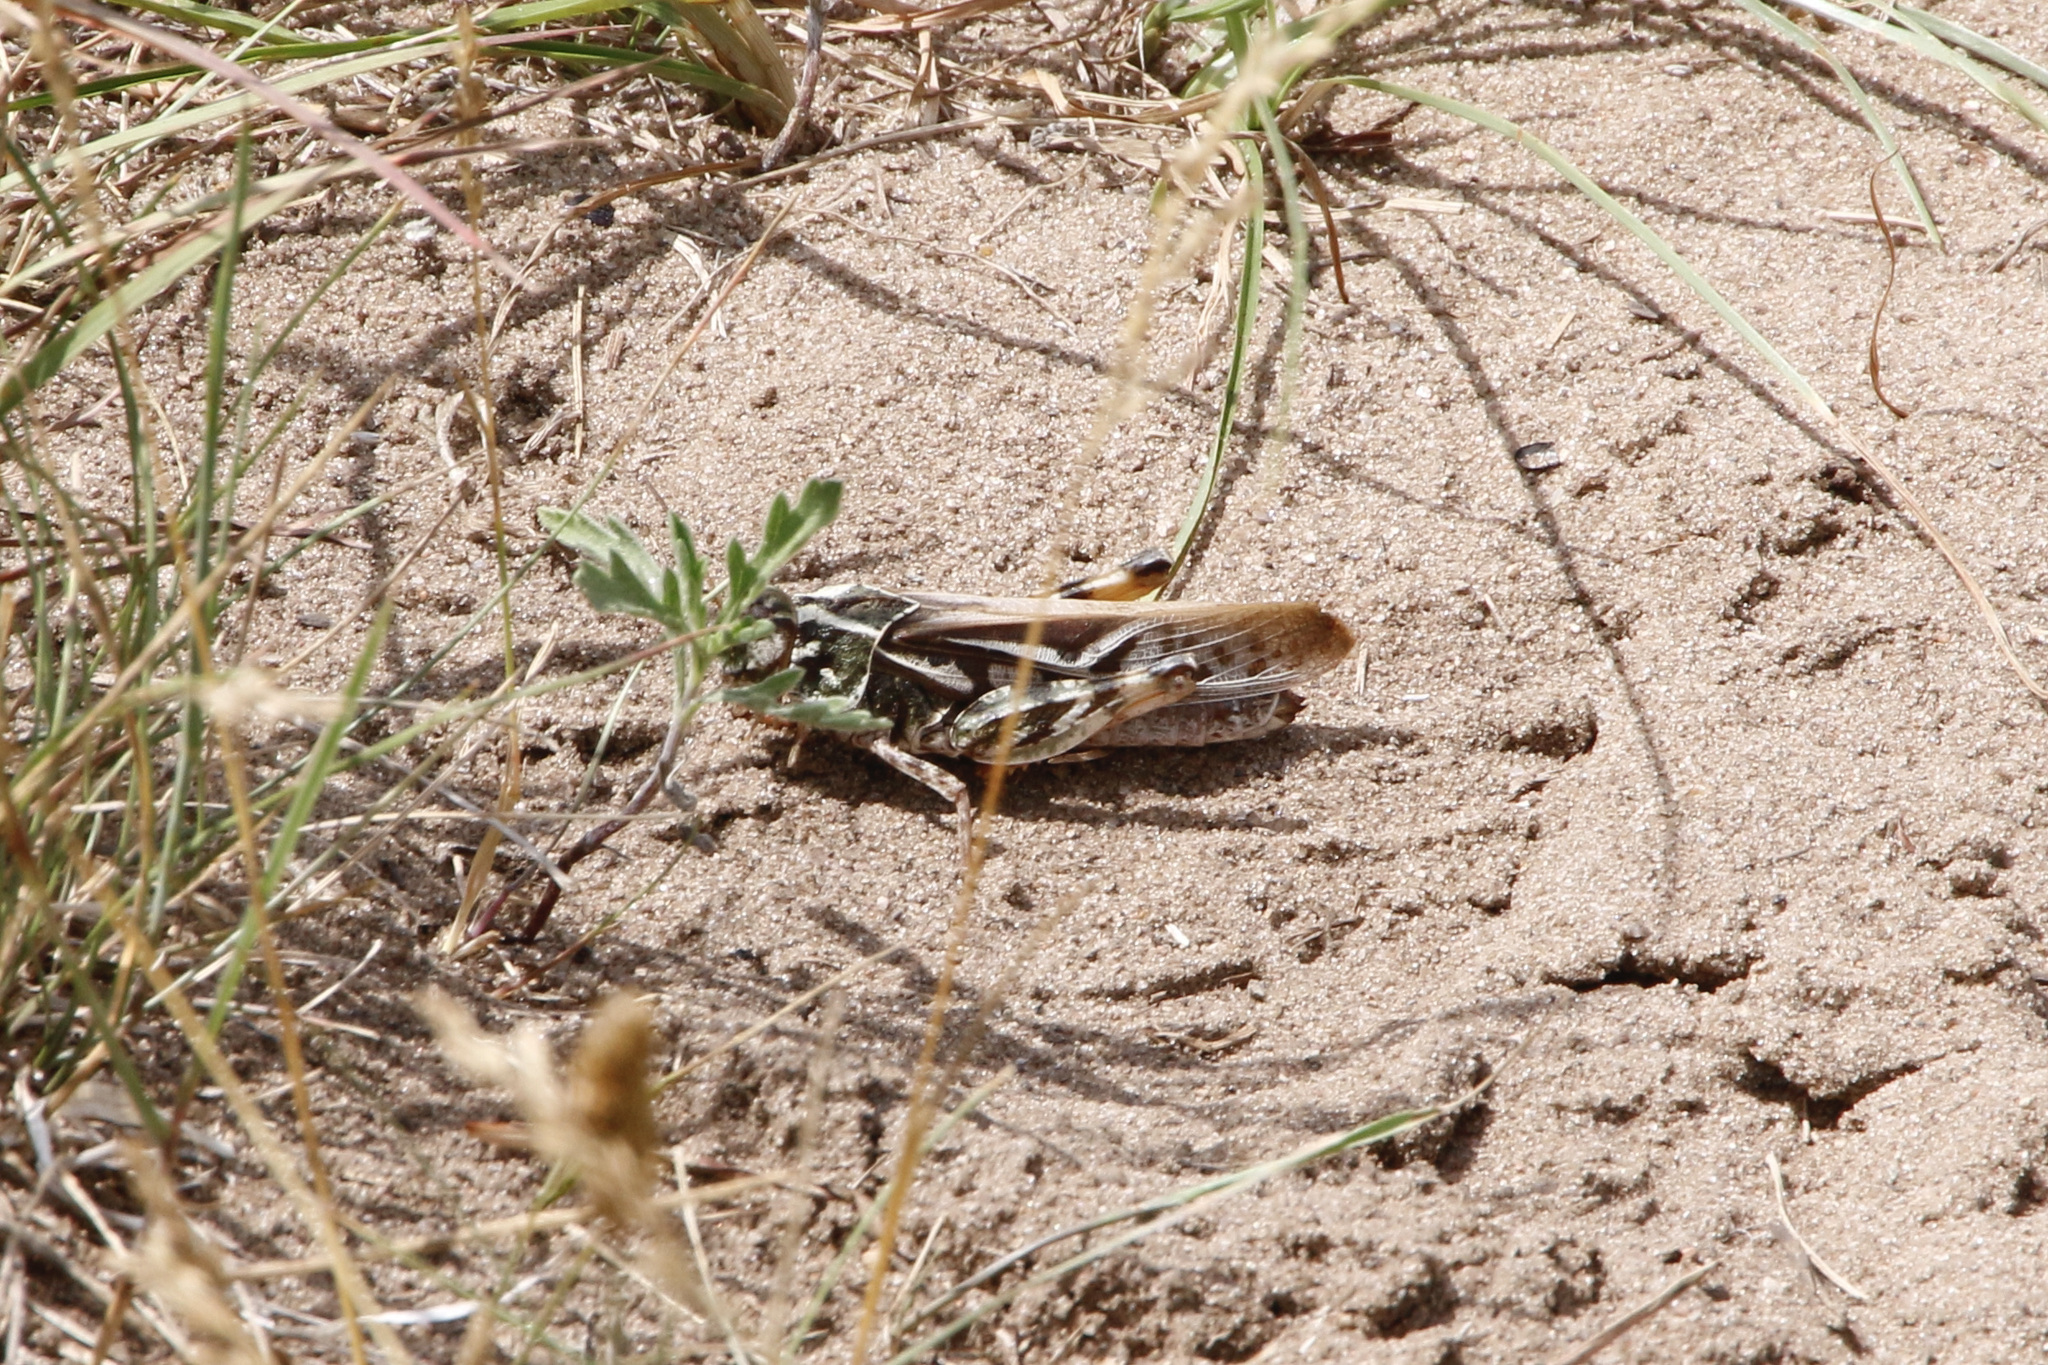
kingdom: Animalia
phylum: Arthropoda
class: Insecta
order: Orthoptera
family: Acrididae
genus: Pardalophora
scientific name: Pardalophora apiculata
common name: Coral-winged locust
